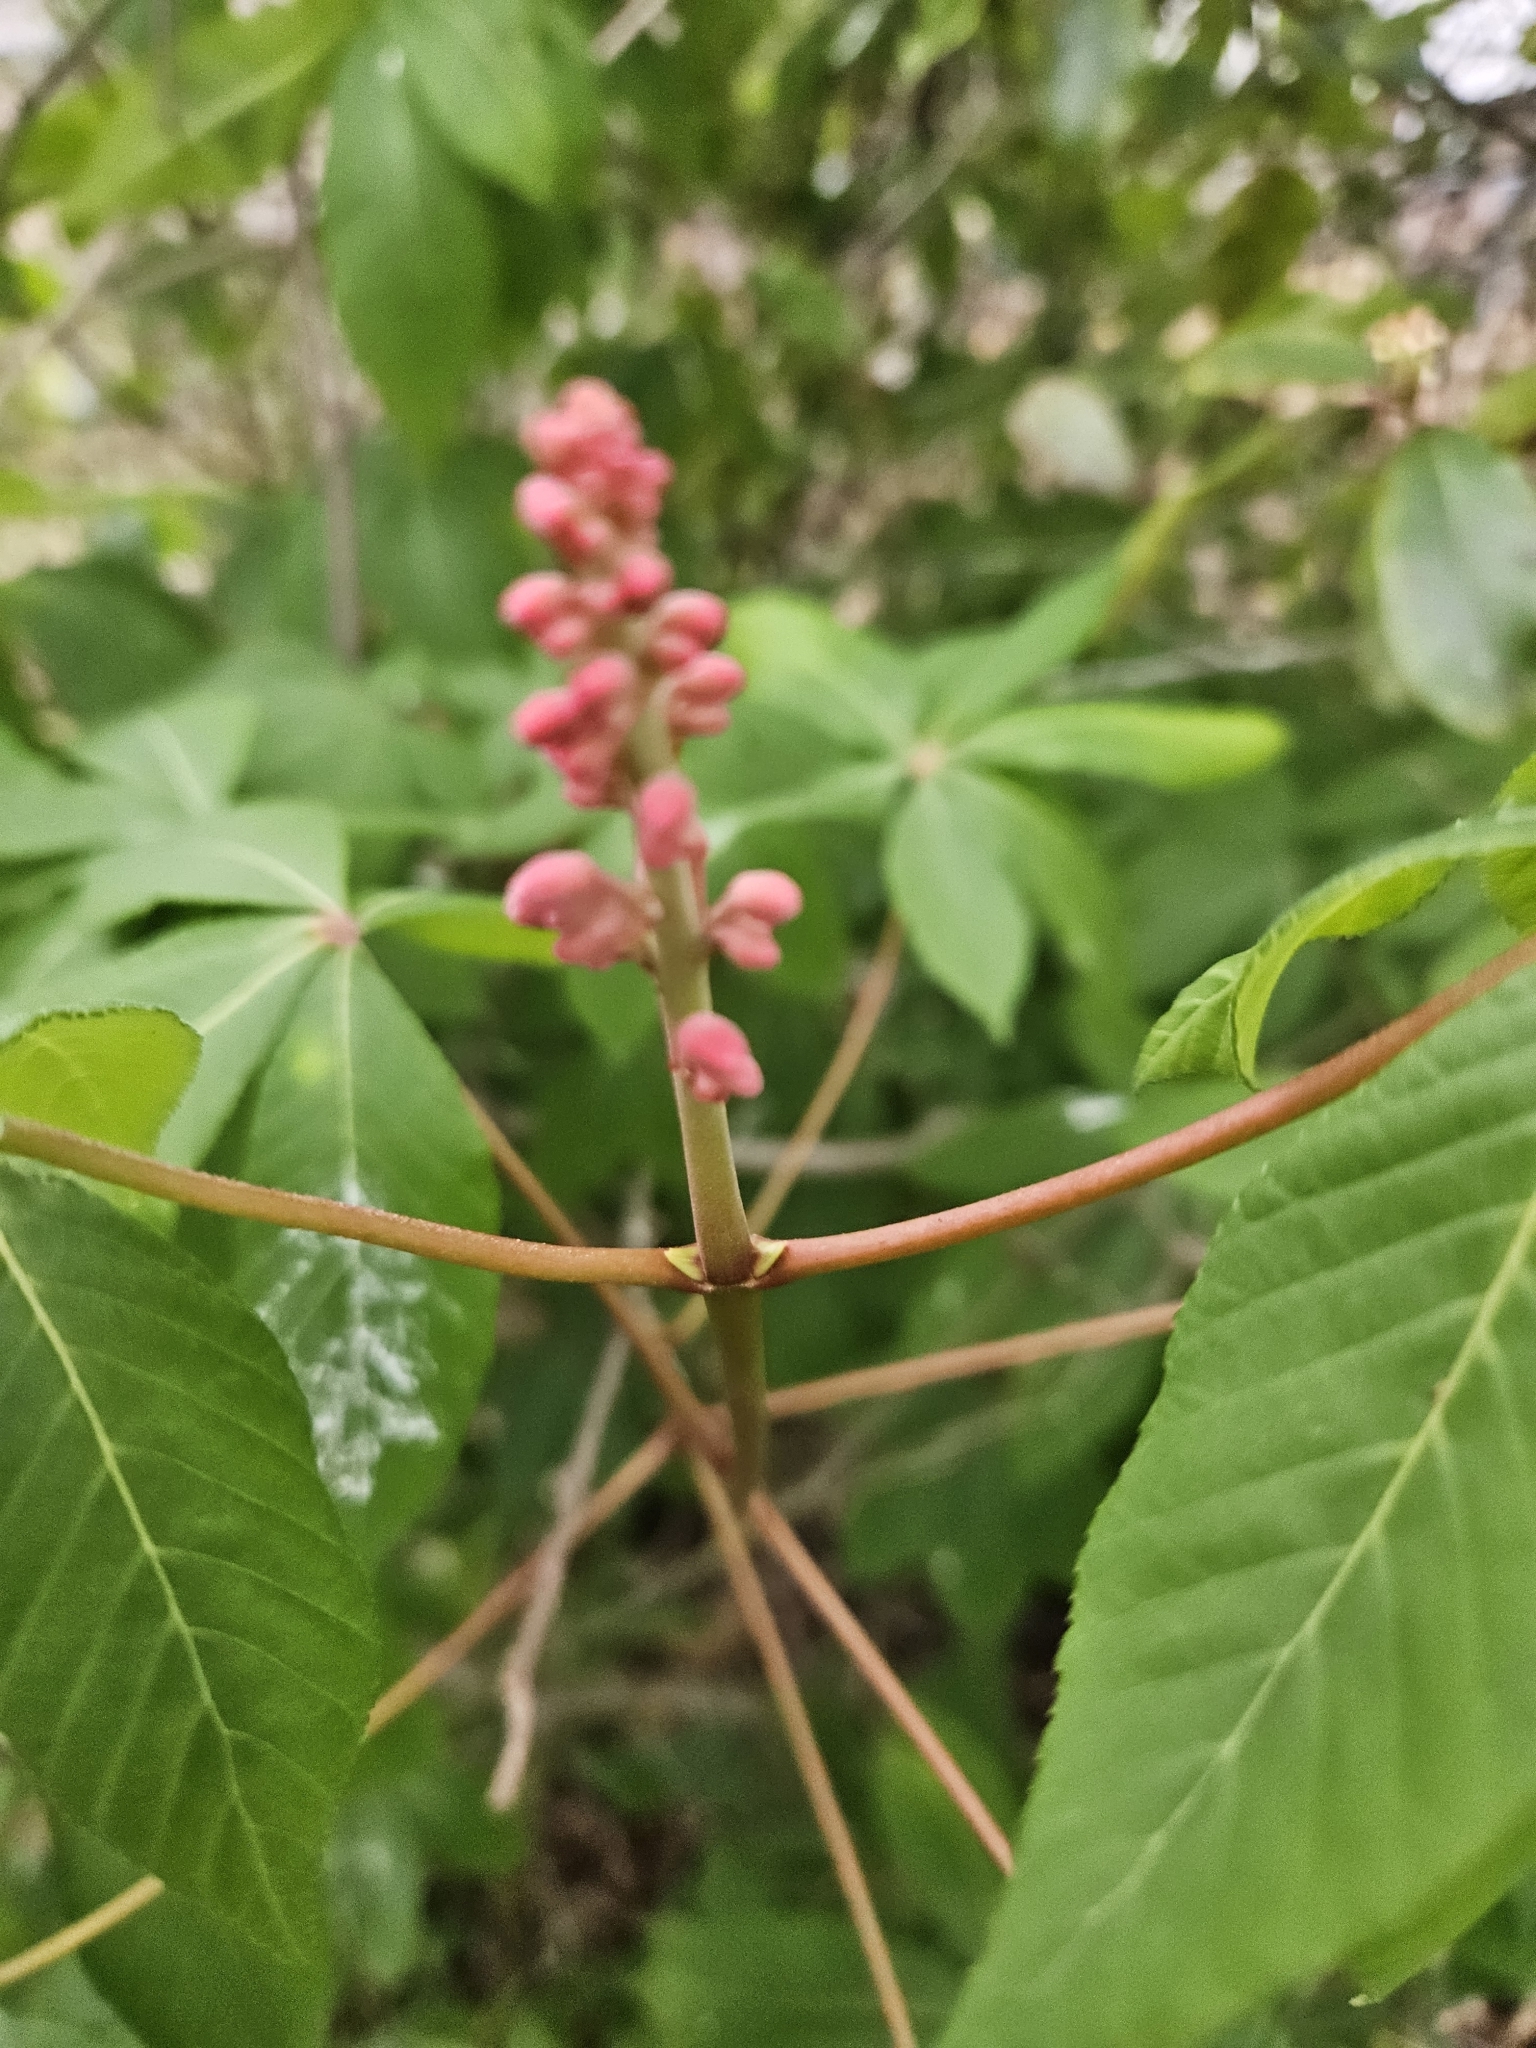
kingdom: Plantae
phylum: Tracheophyta
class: Magnoliopsida
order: Sapindales
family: Sapindaceae
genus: Aesculus
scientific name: Aesculus pavia
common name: Red buckeye
